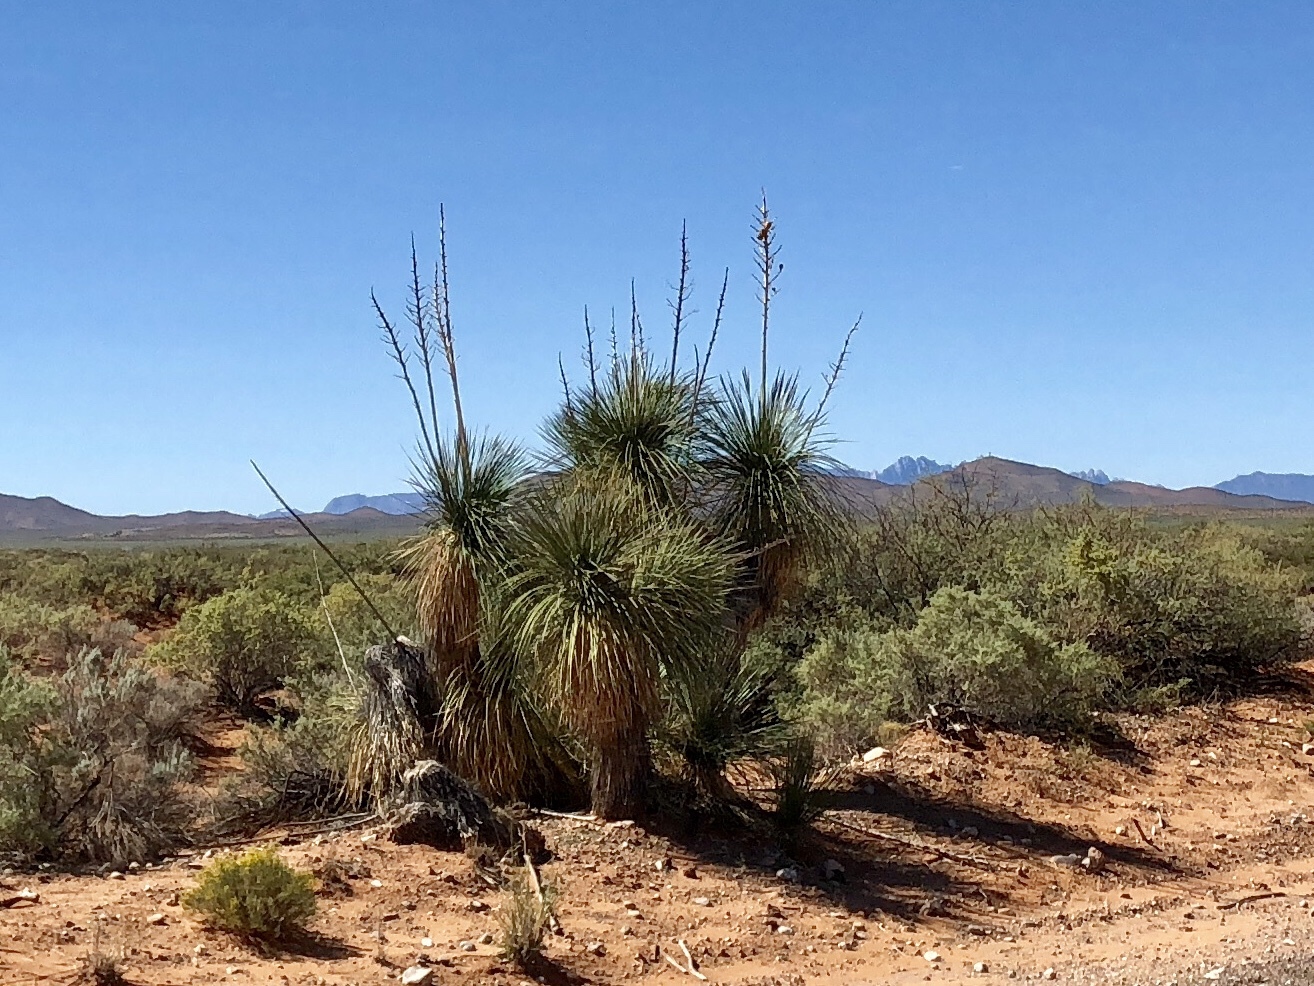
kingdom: Plantae
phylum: Tracheophyta
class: Liliopsida
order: Asparagales
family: Asparagaceae
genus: Yucca
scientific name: Yucca elata
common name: Palmella
